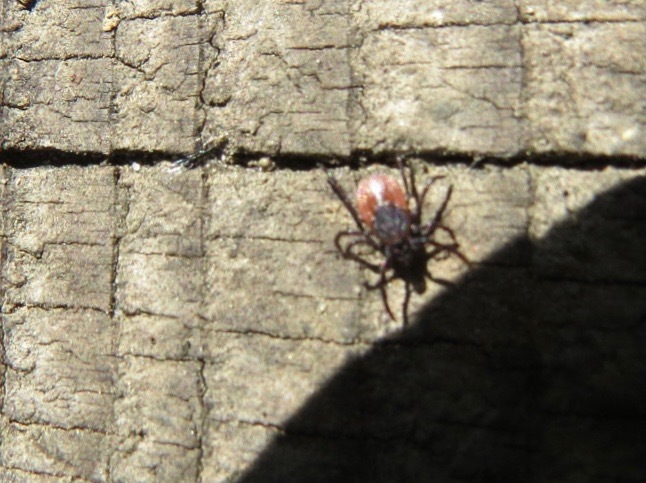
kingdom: Animalia
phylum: Arthropoda
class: Arachnida
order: Ixodida
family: Ixodidae
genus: Ixodes
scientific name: Ixodes pacificus
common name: California black-legged tick
